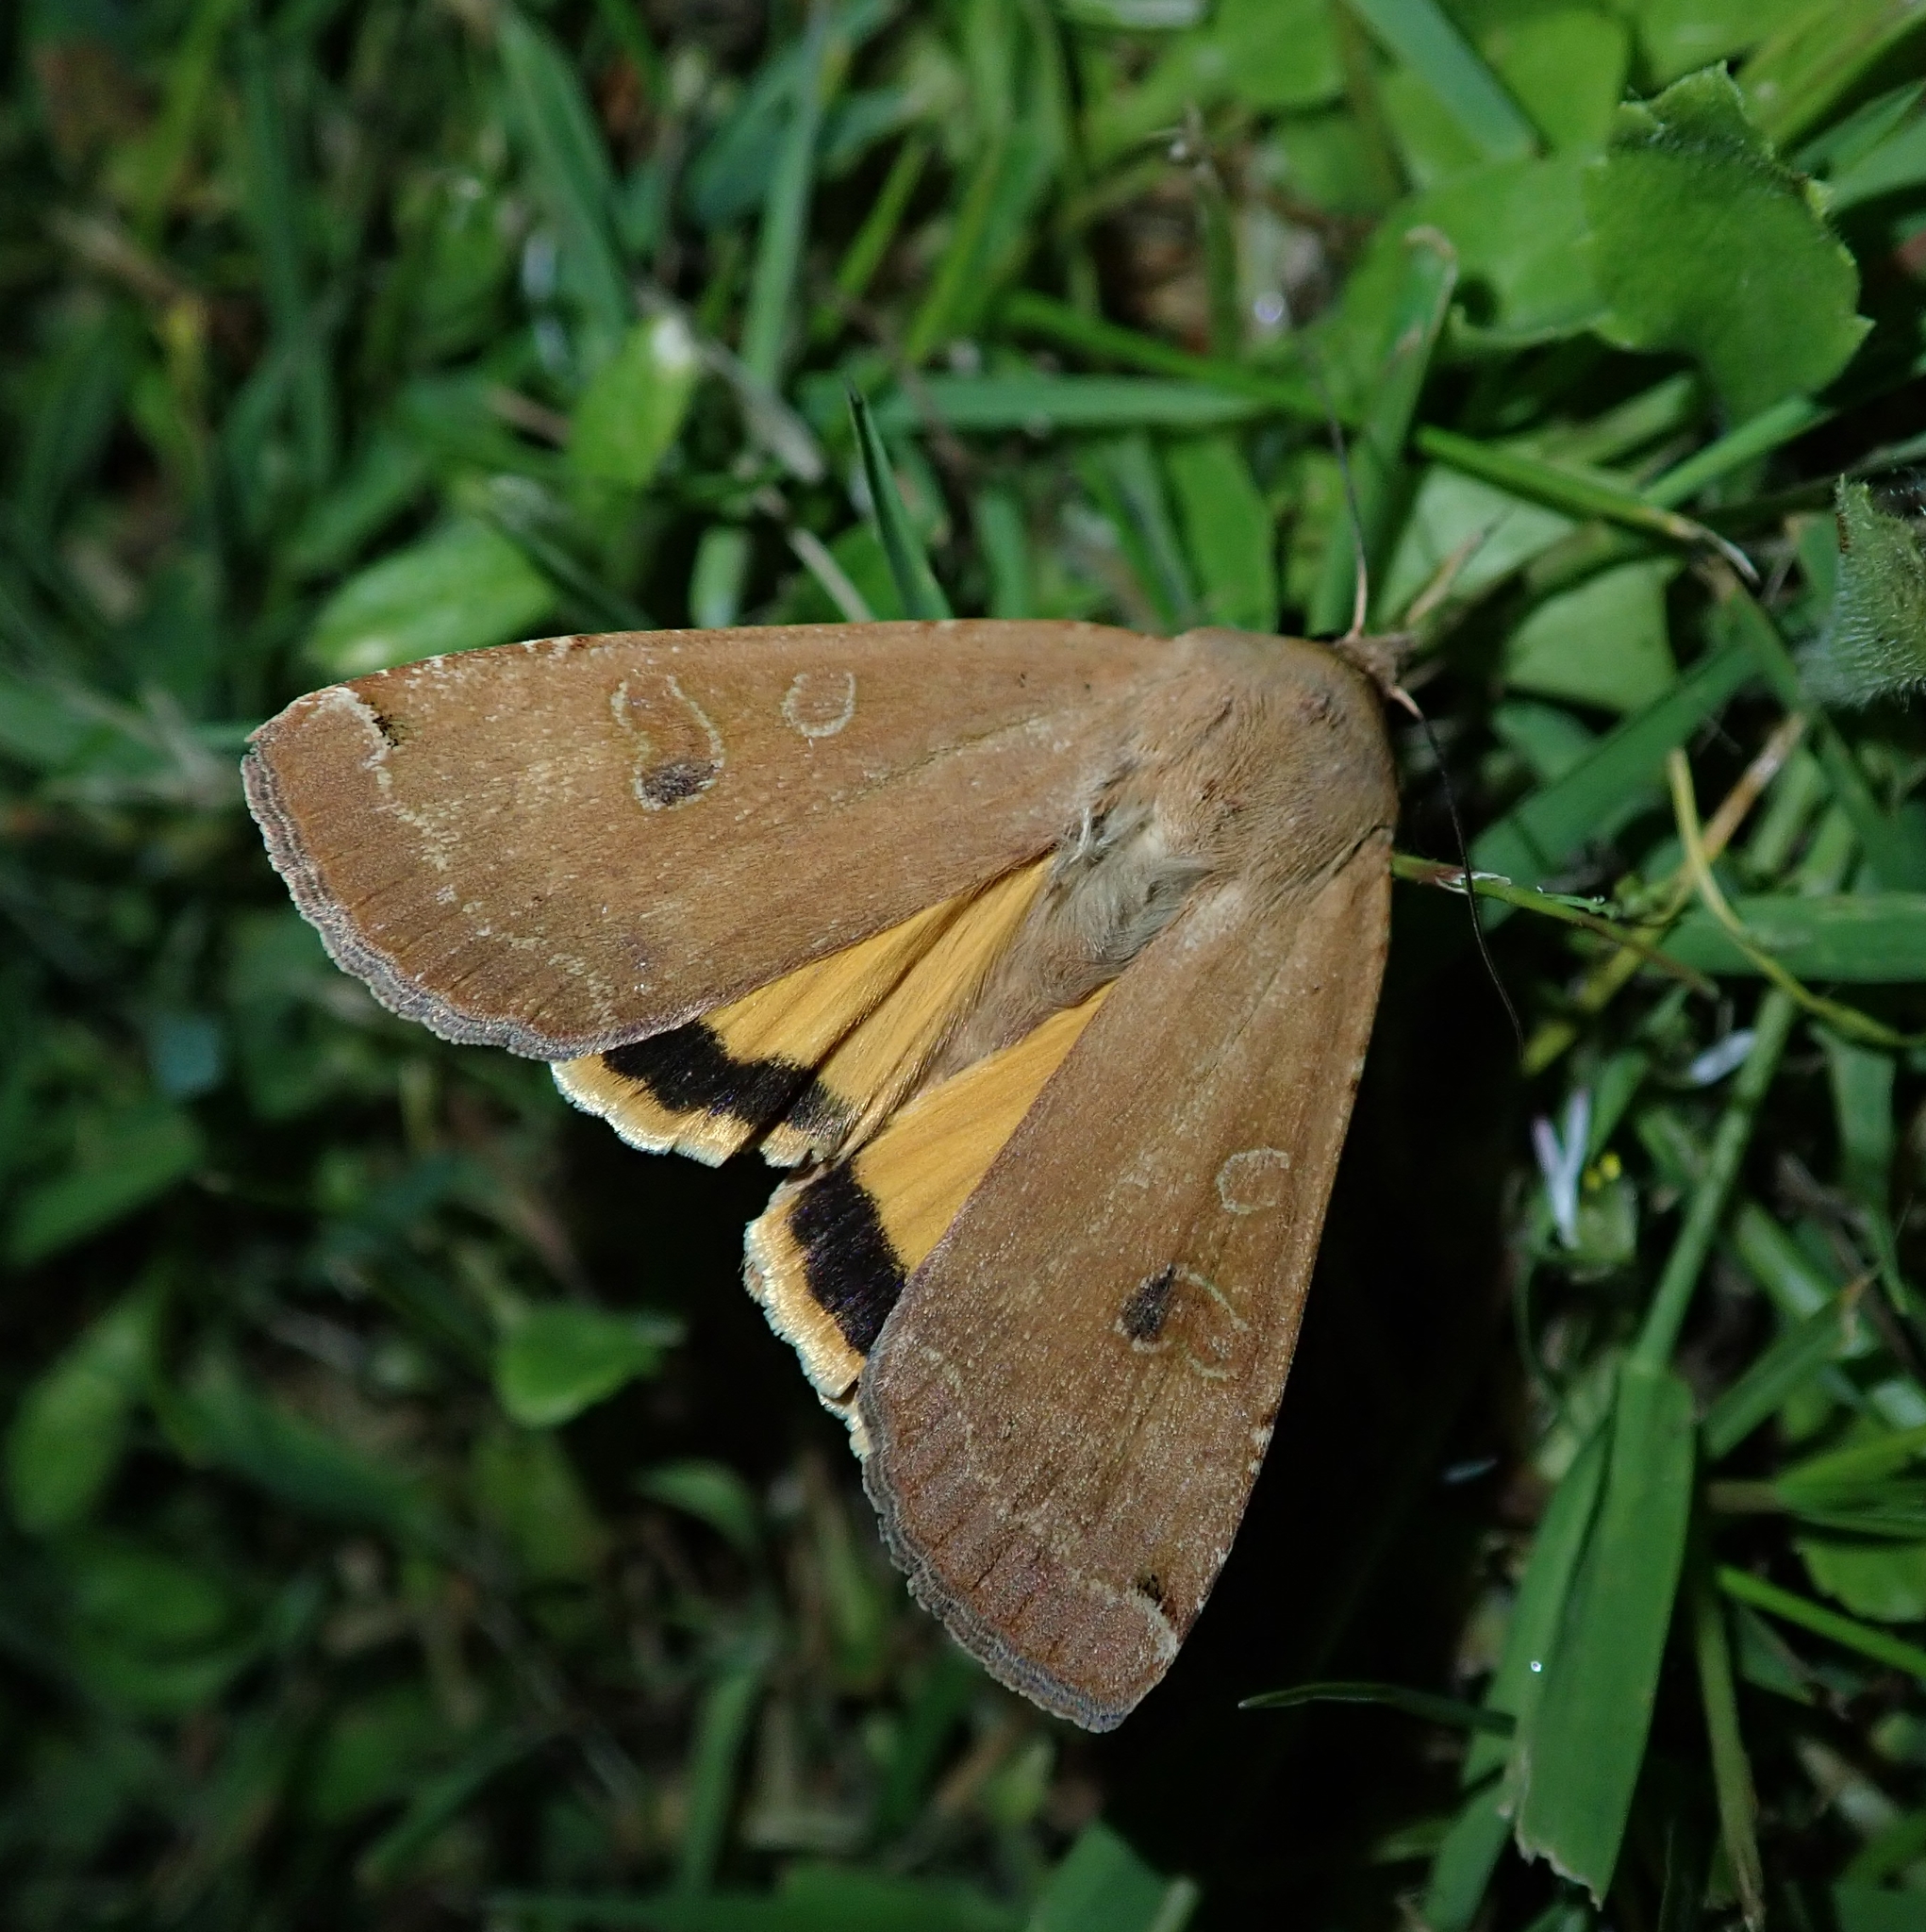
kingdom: Animalia
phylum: Arthropoda
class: Insecta
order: Lepidoptera
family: Noctuidae
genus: Noctua
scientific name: Noctua pronuba
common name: Large yellow underwing
